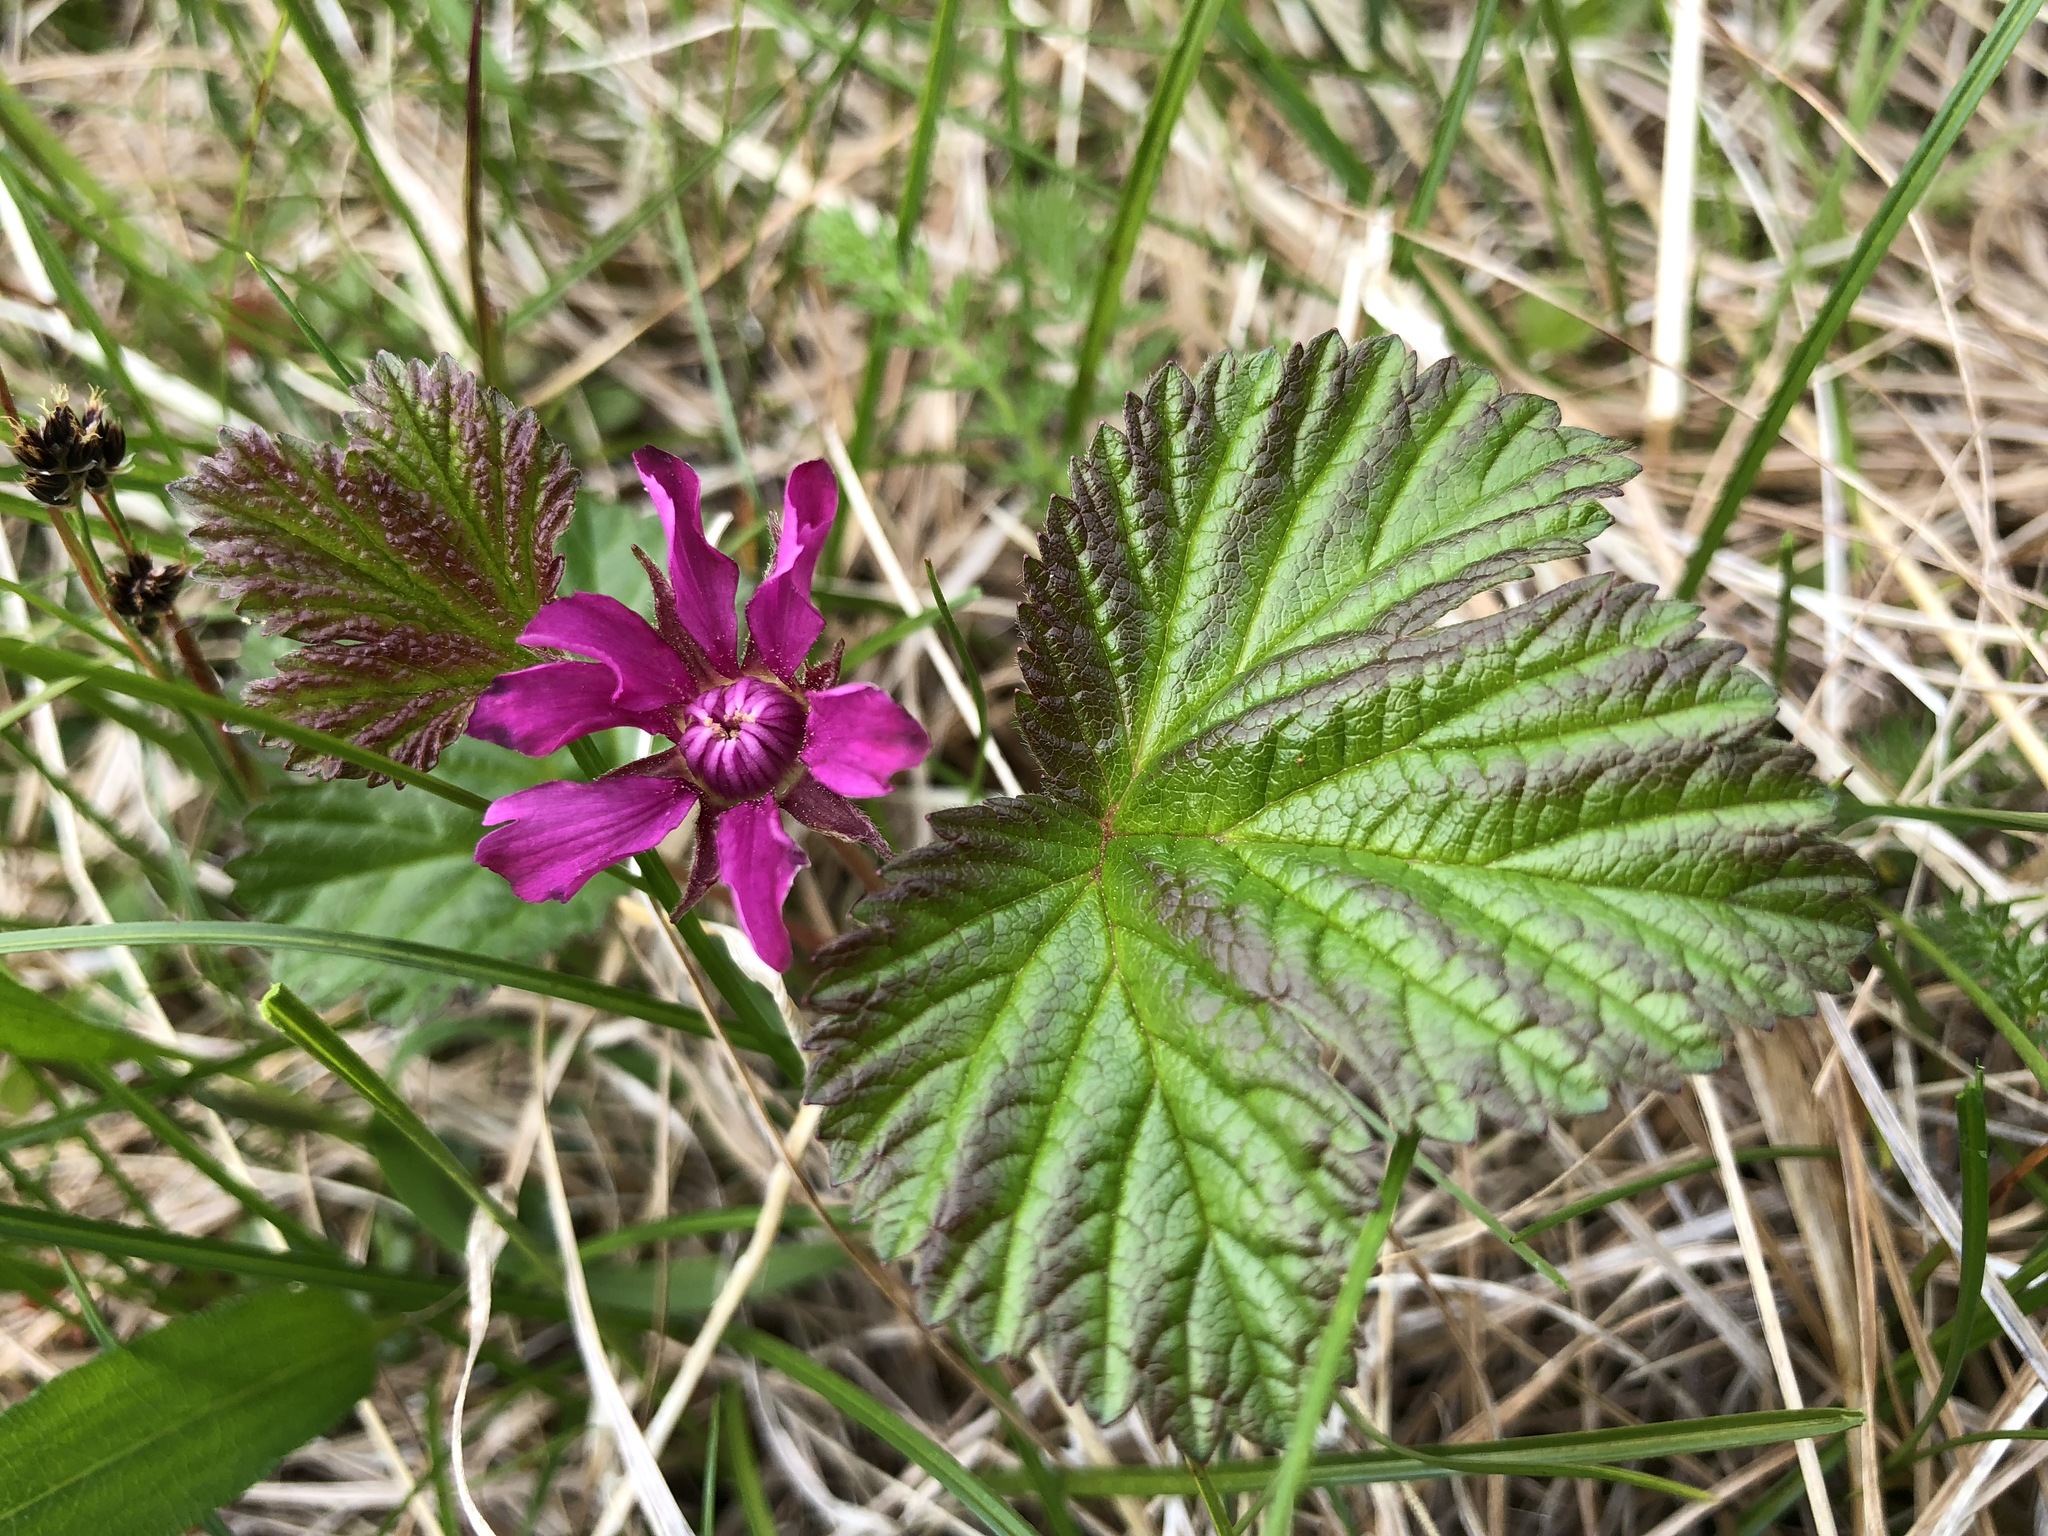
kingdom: Plantae
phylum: Tracheophyta
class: Magnoliopsida
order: Rosales
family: Rosaceae
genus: Rubus
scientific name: Rubus arcticus
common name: Arctic bramble
